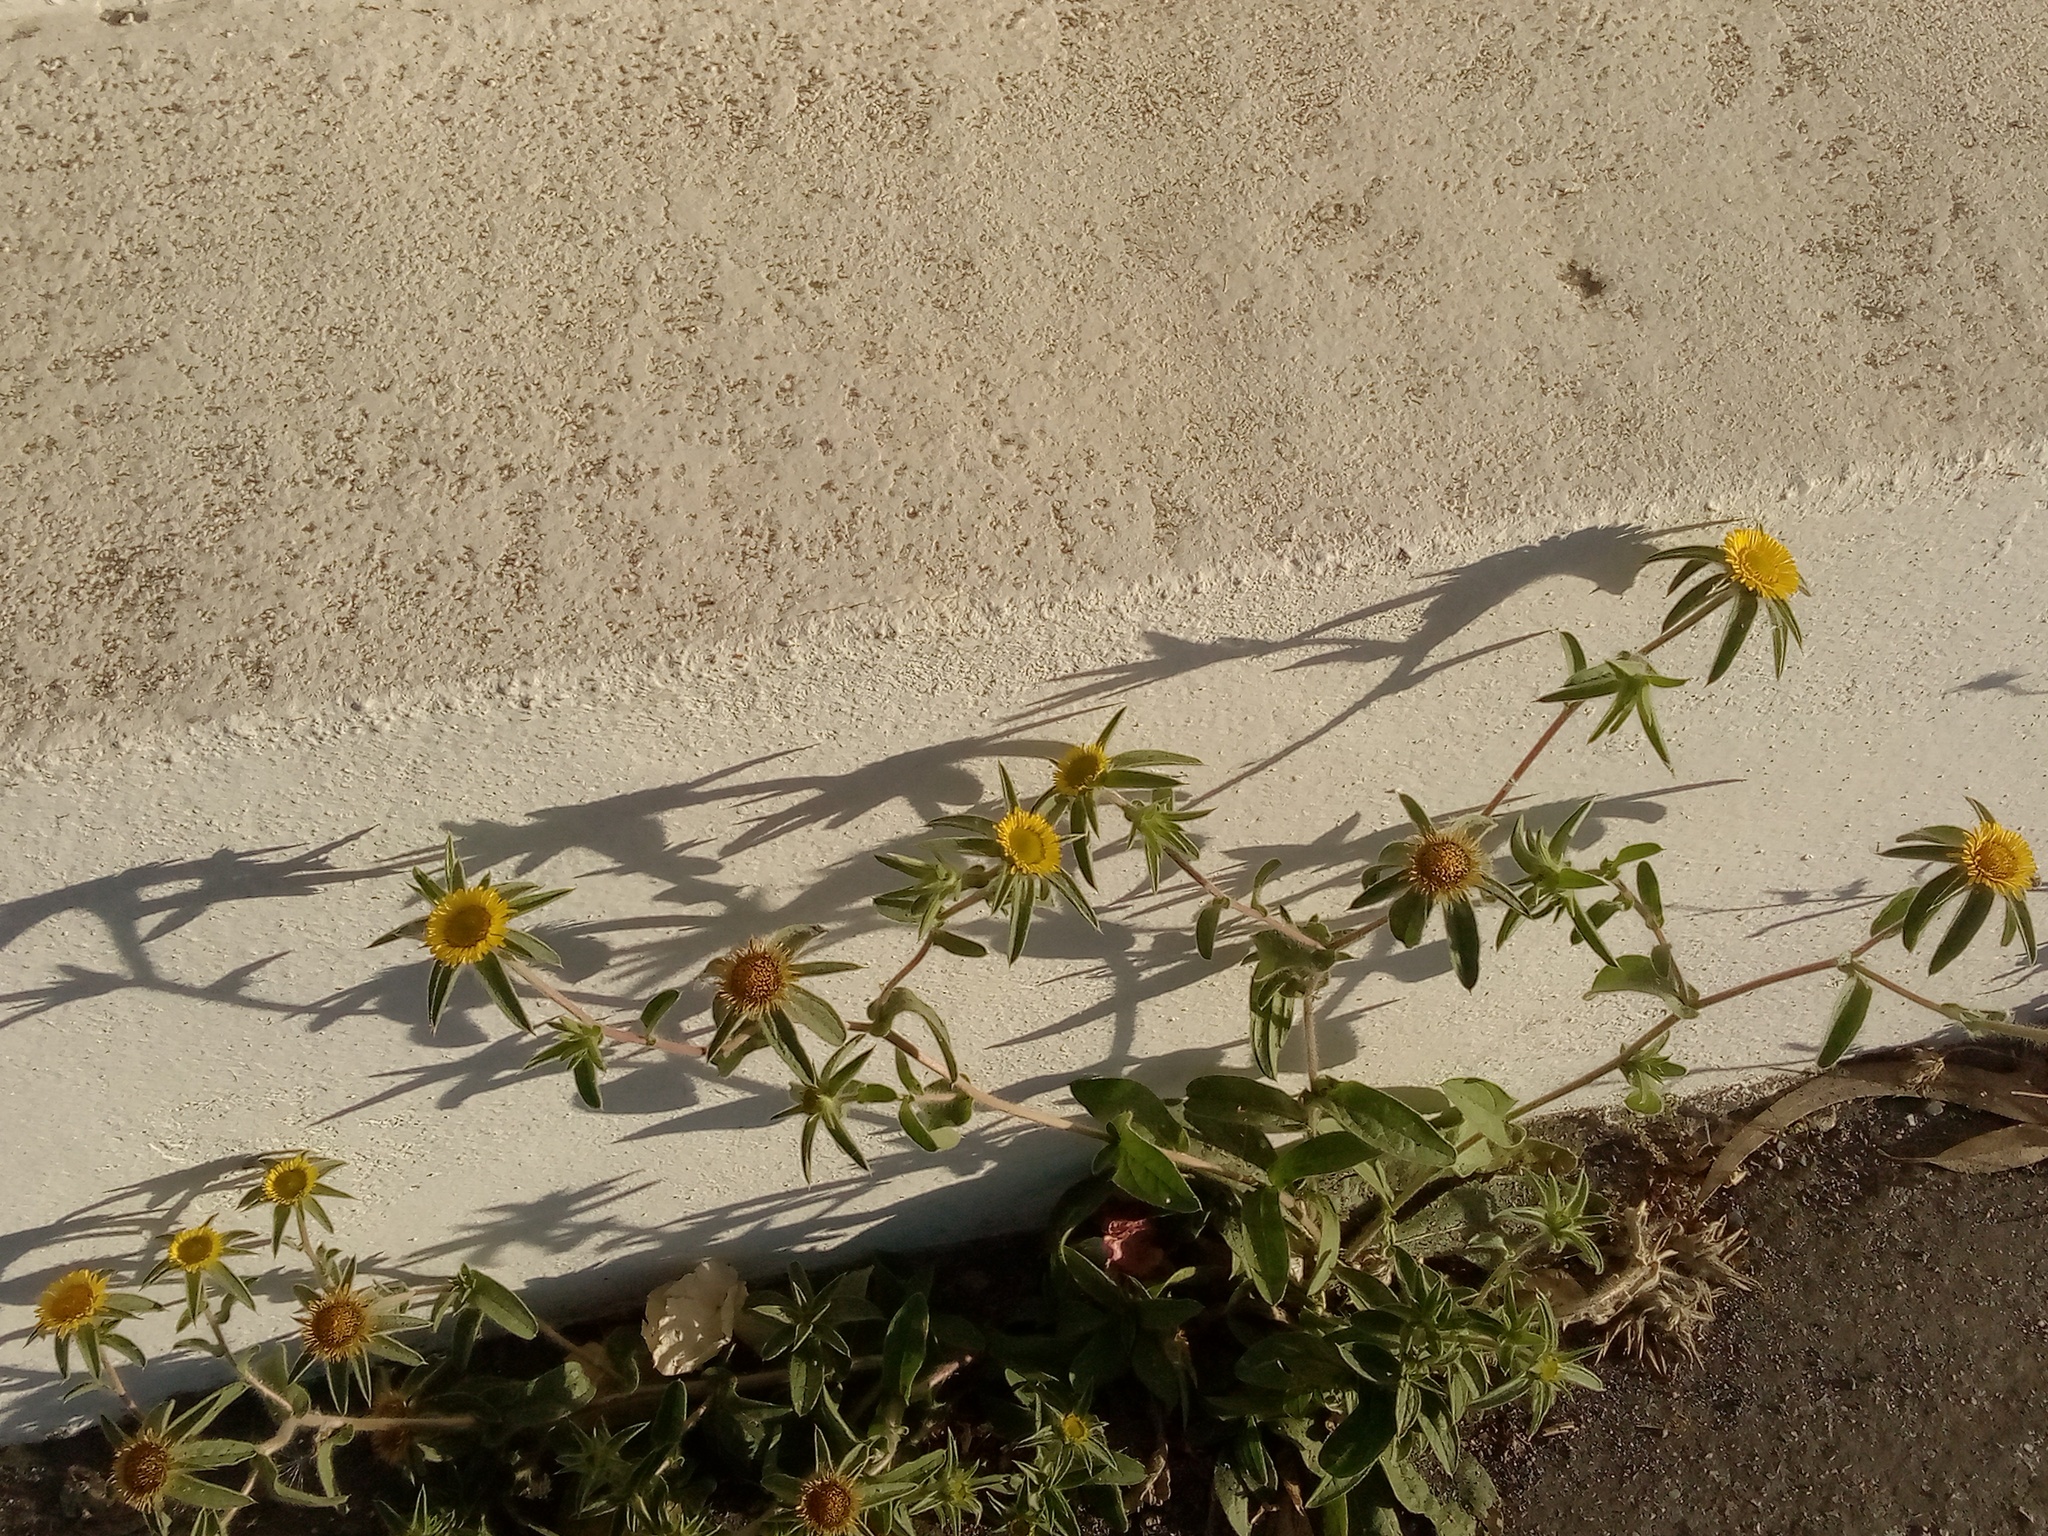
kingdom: Plantae
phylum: Tracheophyta
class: Magnoliopsida
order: Asterales
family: Asteraceae
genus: Pallenis
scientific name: Pallenis spinosa
